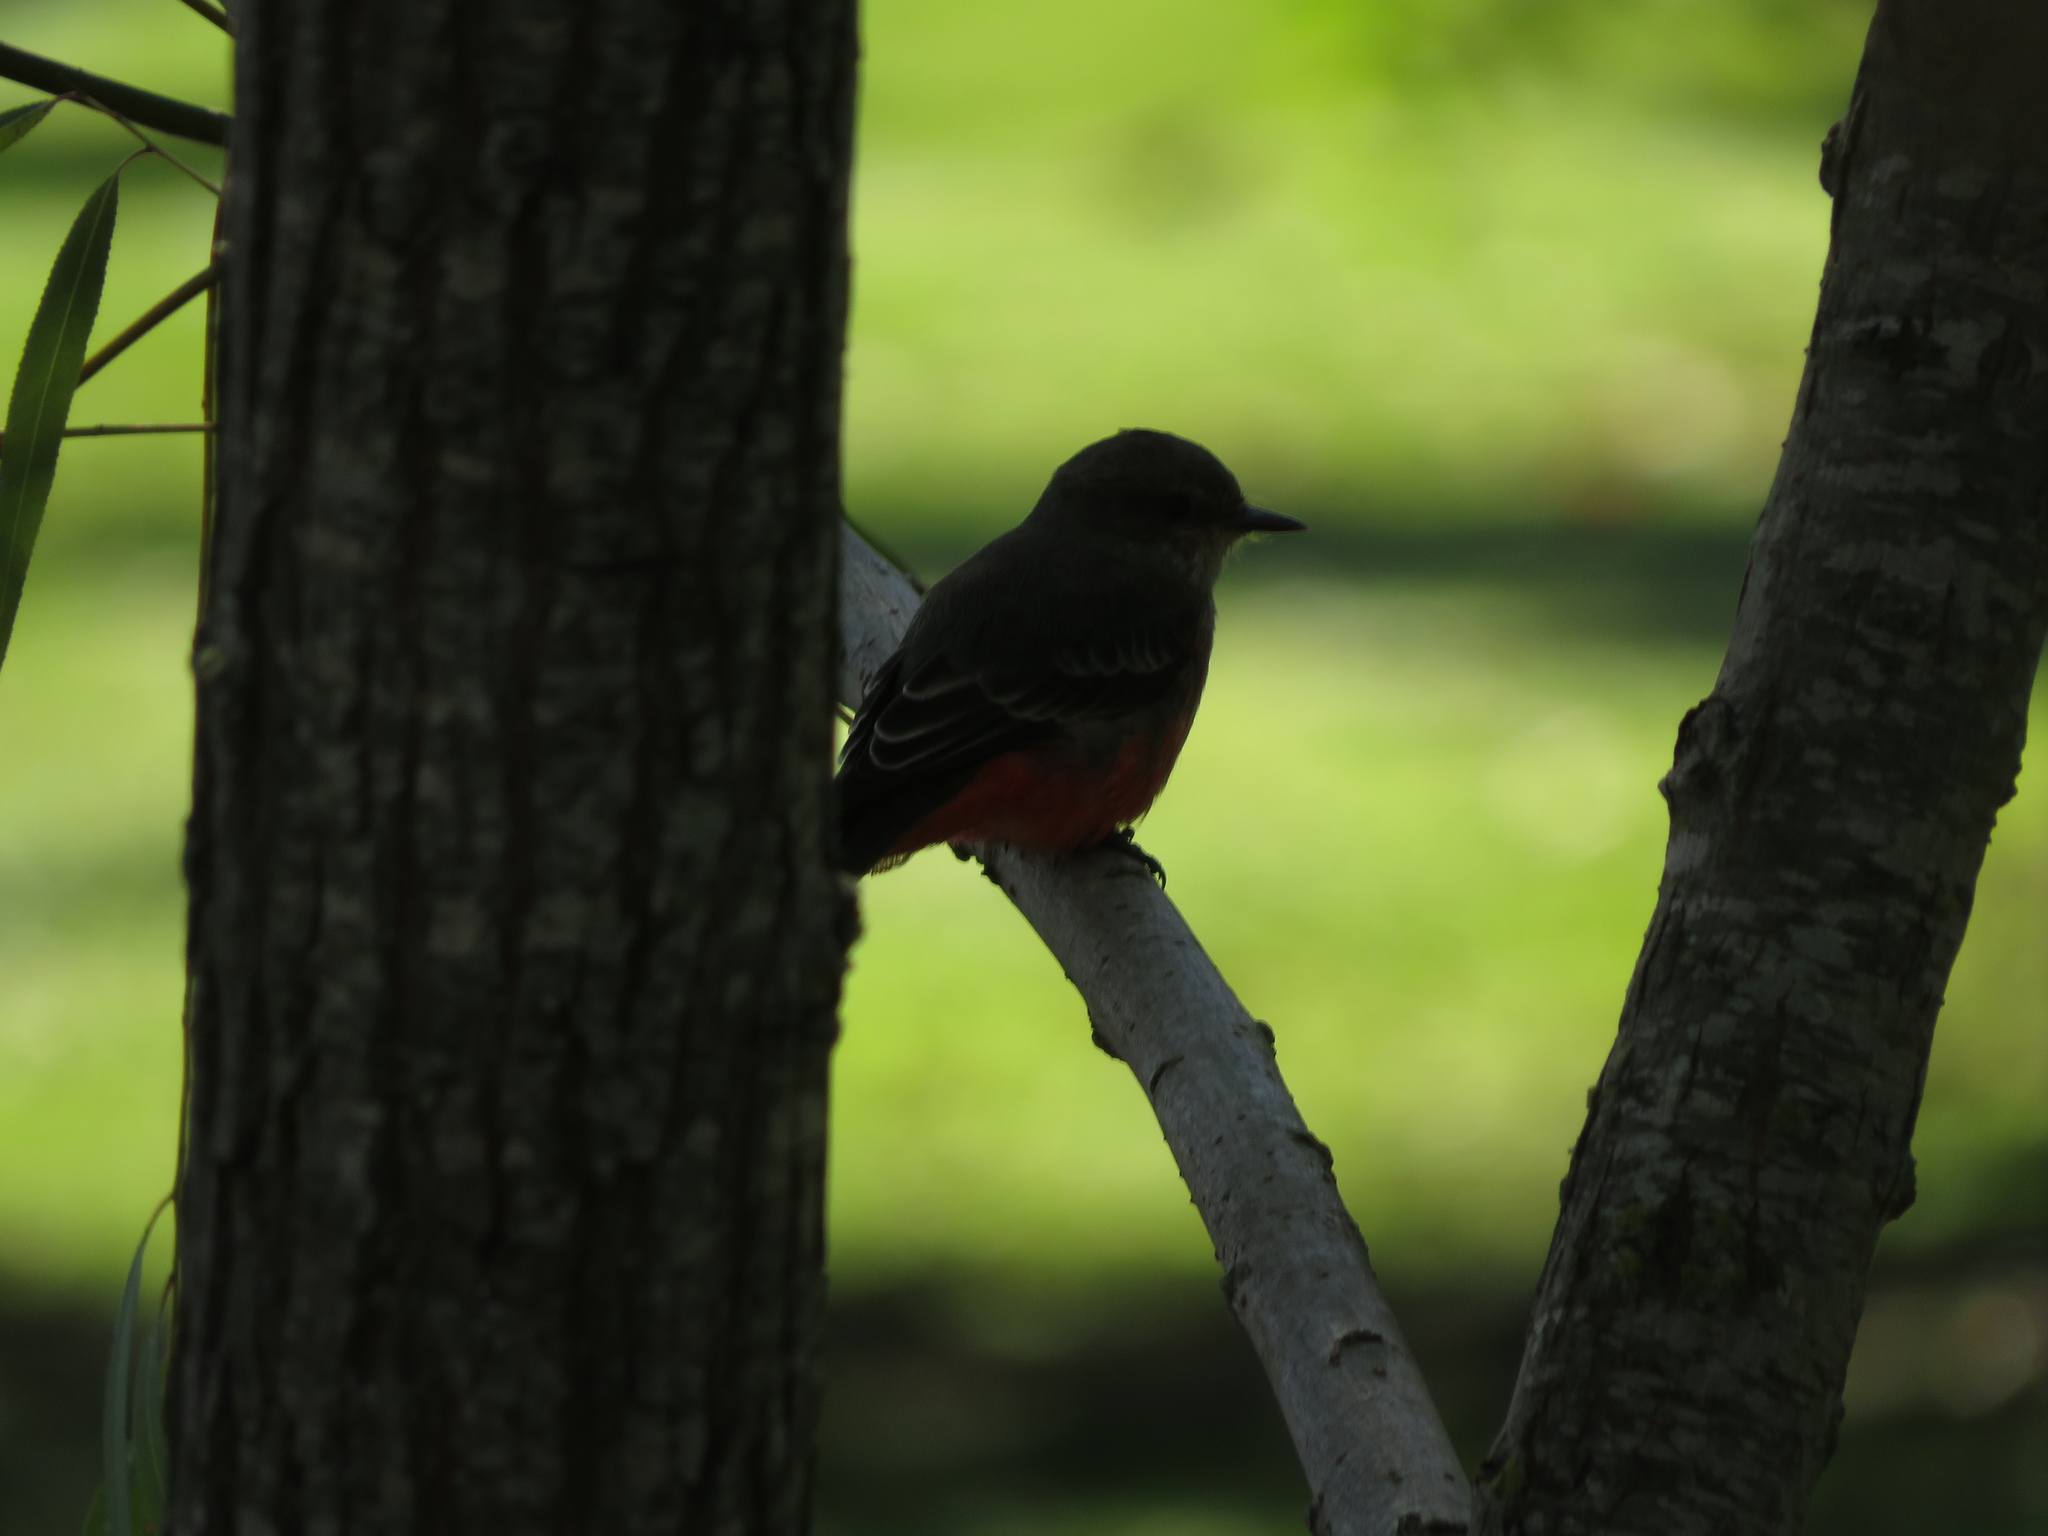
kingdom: Animalia
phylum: Chordata
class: Aves
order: Passeriformes
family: Tyrannidae
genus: Pyrocephalus
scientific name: Pyrocephalus rubinus
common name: Vermilion flycatcher
